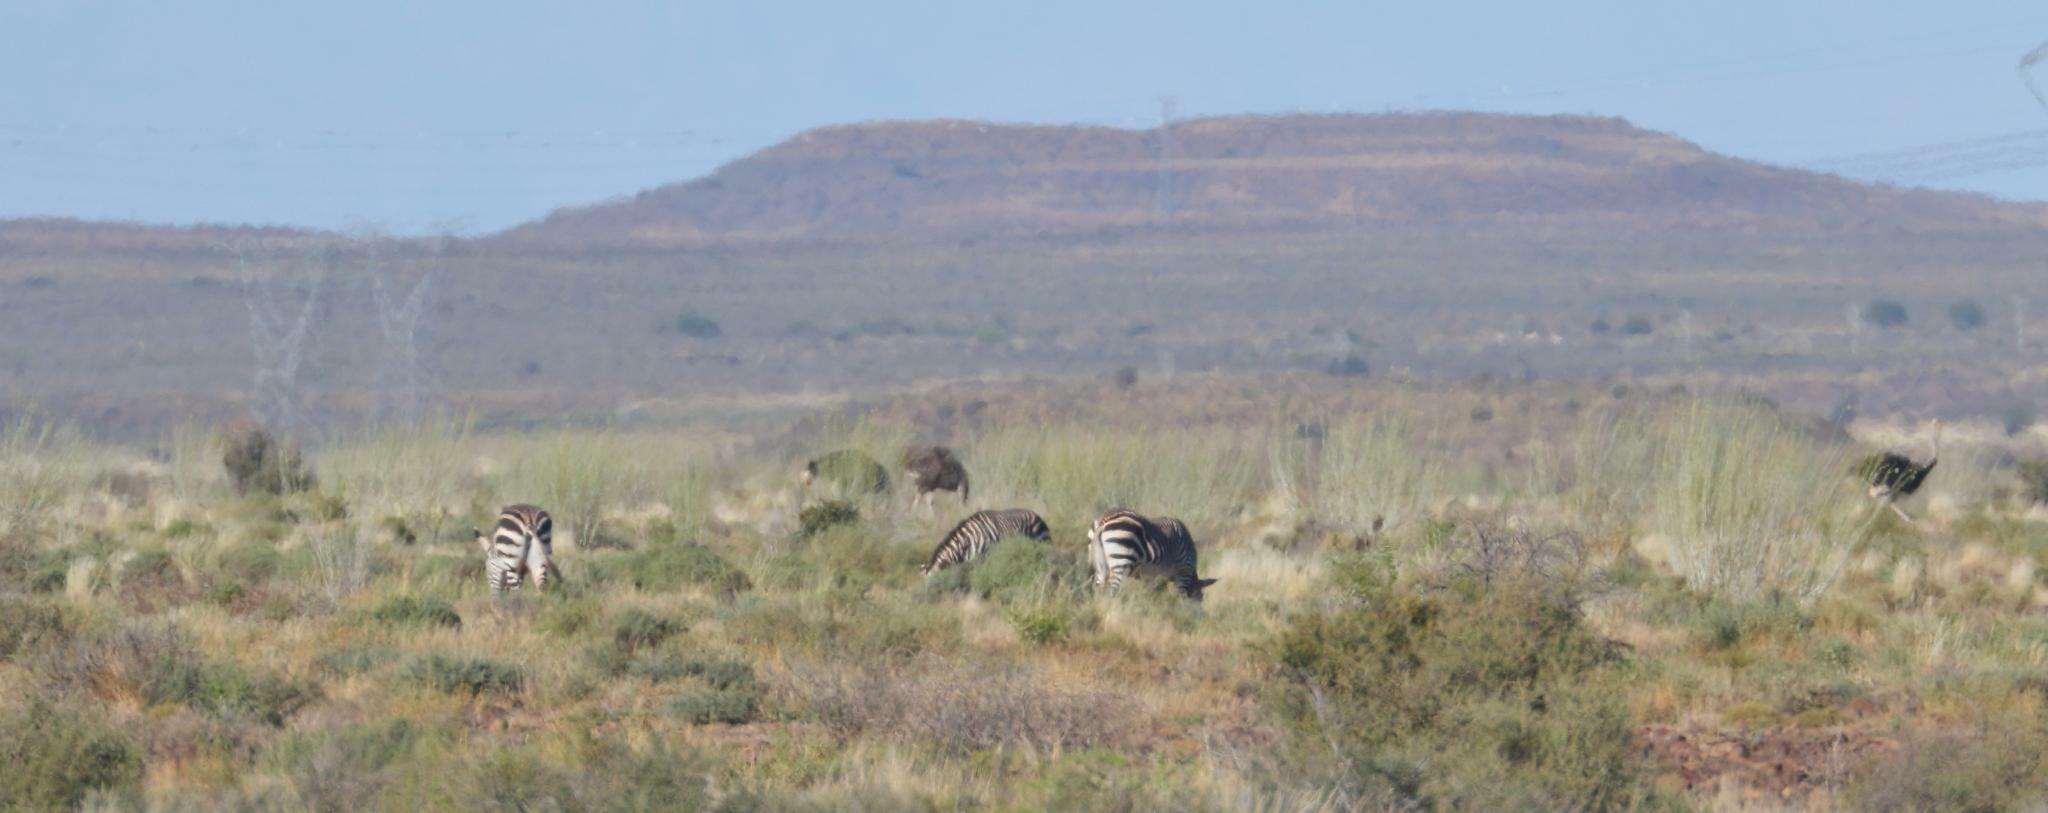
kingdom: Animalia
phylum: Chordata
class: Aves
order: Struthioniformes
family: Struthionidae
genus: Struthio
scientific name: Struthio camelus
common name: Common ostrich
